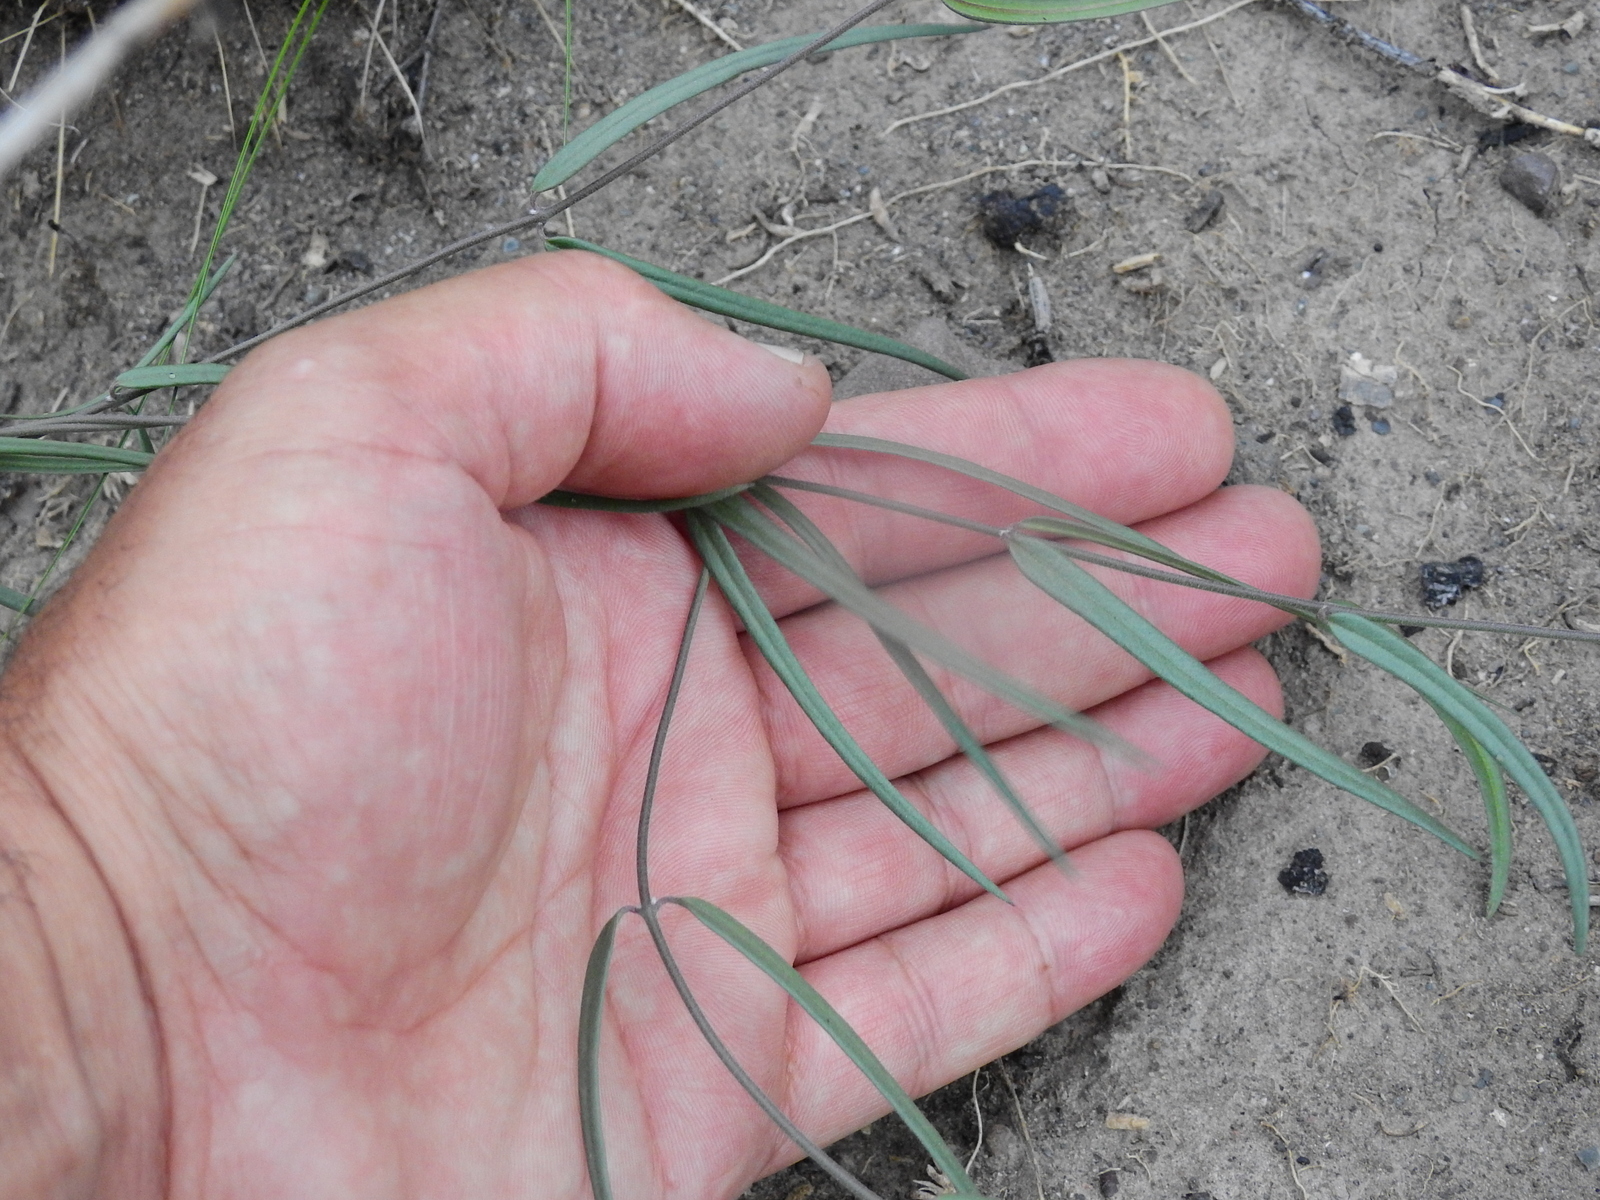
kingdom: Plantae
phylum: Tracheophyta
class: Magnoliopsida
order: Gentianales
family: Apocynaceae
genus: Tweedia
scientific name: Tweedia brunonis
